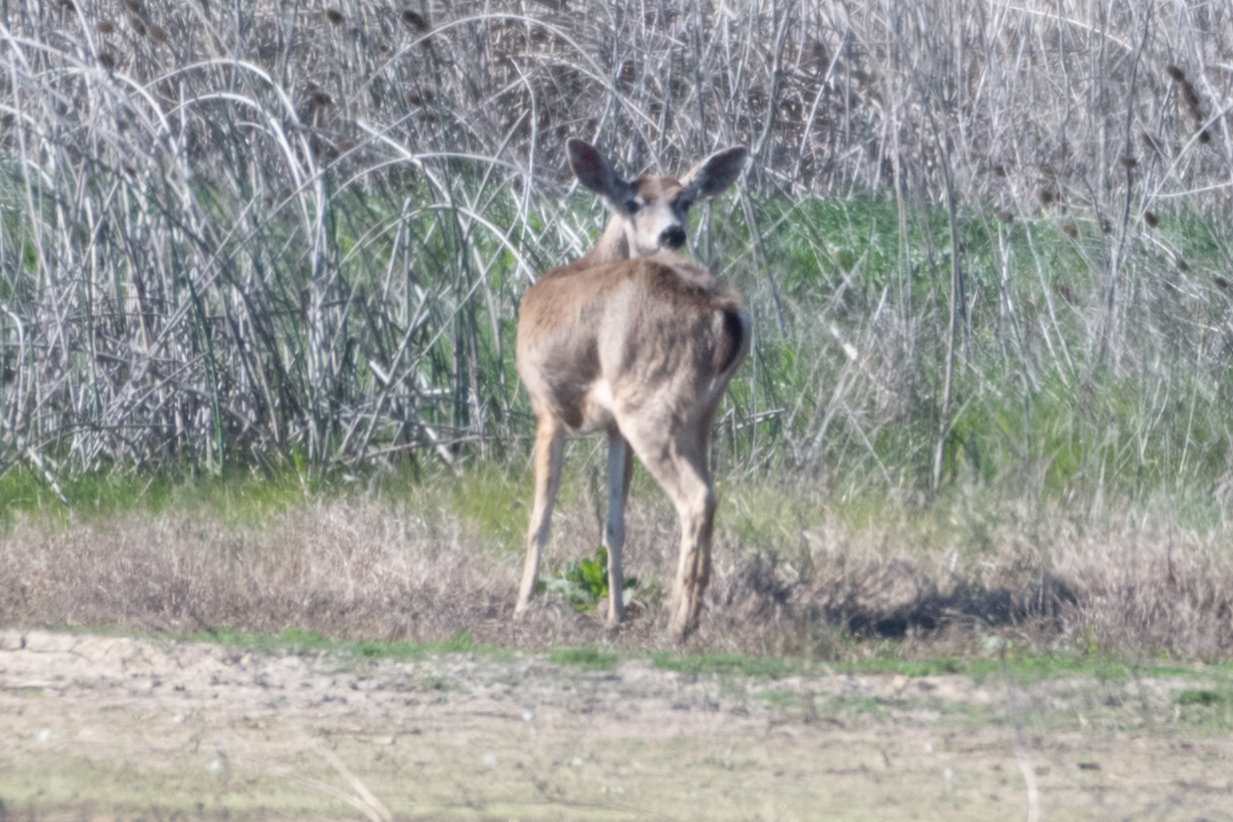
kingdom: Animalia
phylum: Chordata
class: Mammalia
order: Artiodactyla
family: Cervidae
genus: Odocoileus
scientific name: Odocoileus hemionus
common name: Mule deer
